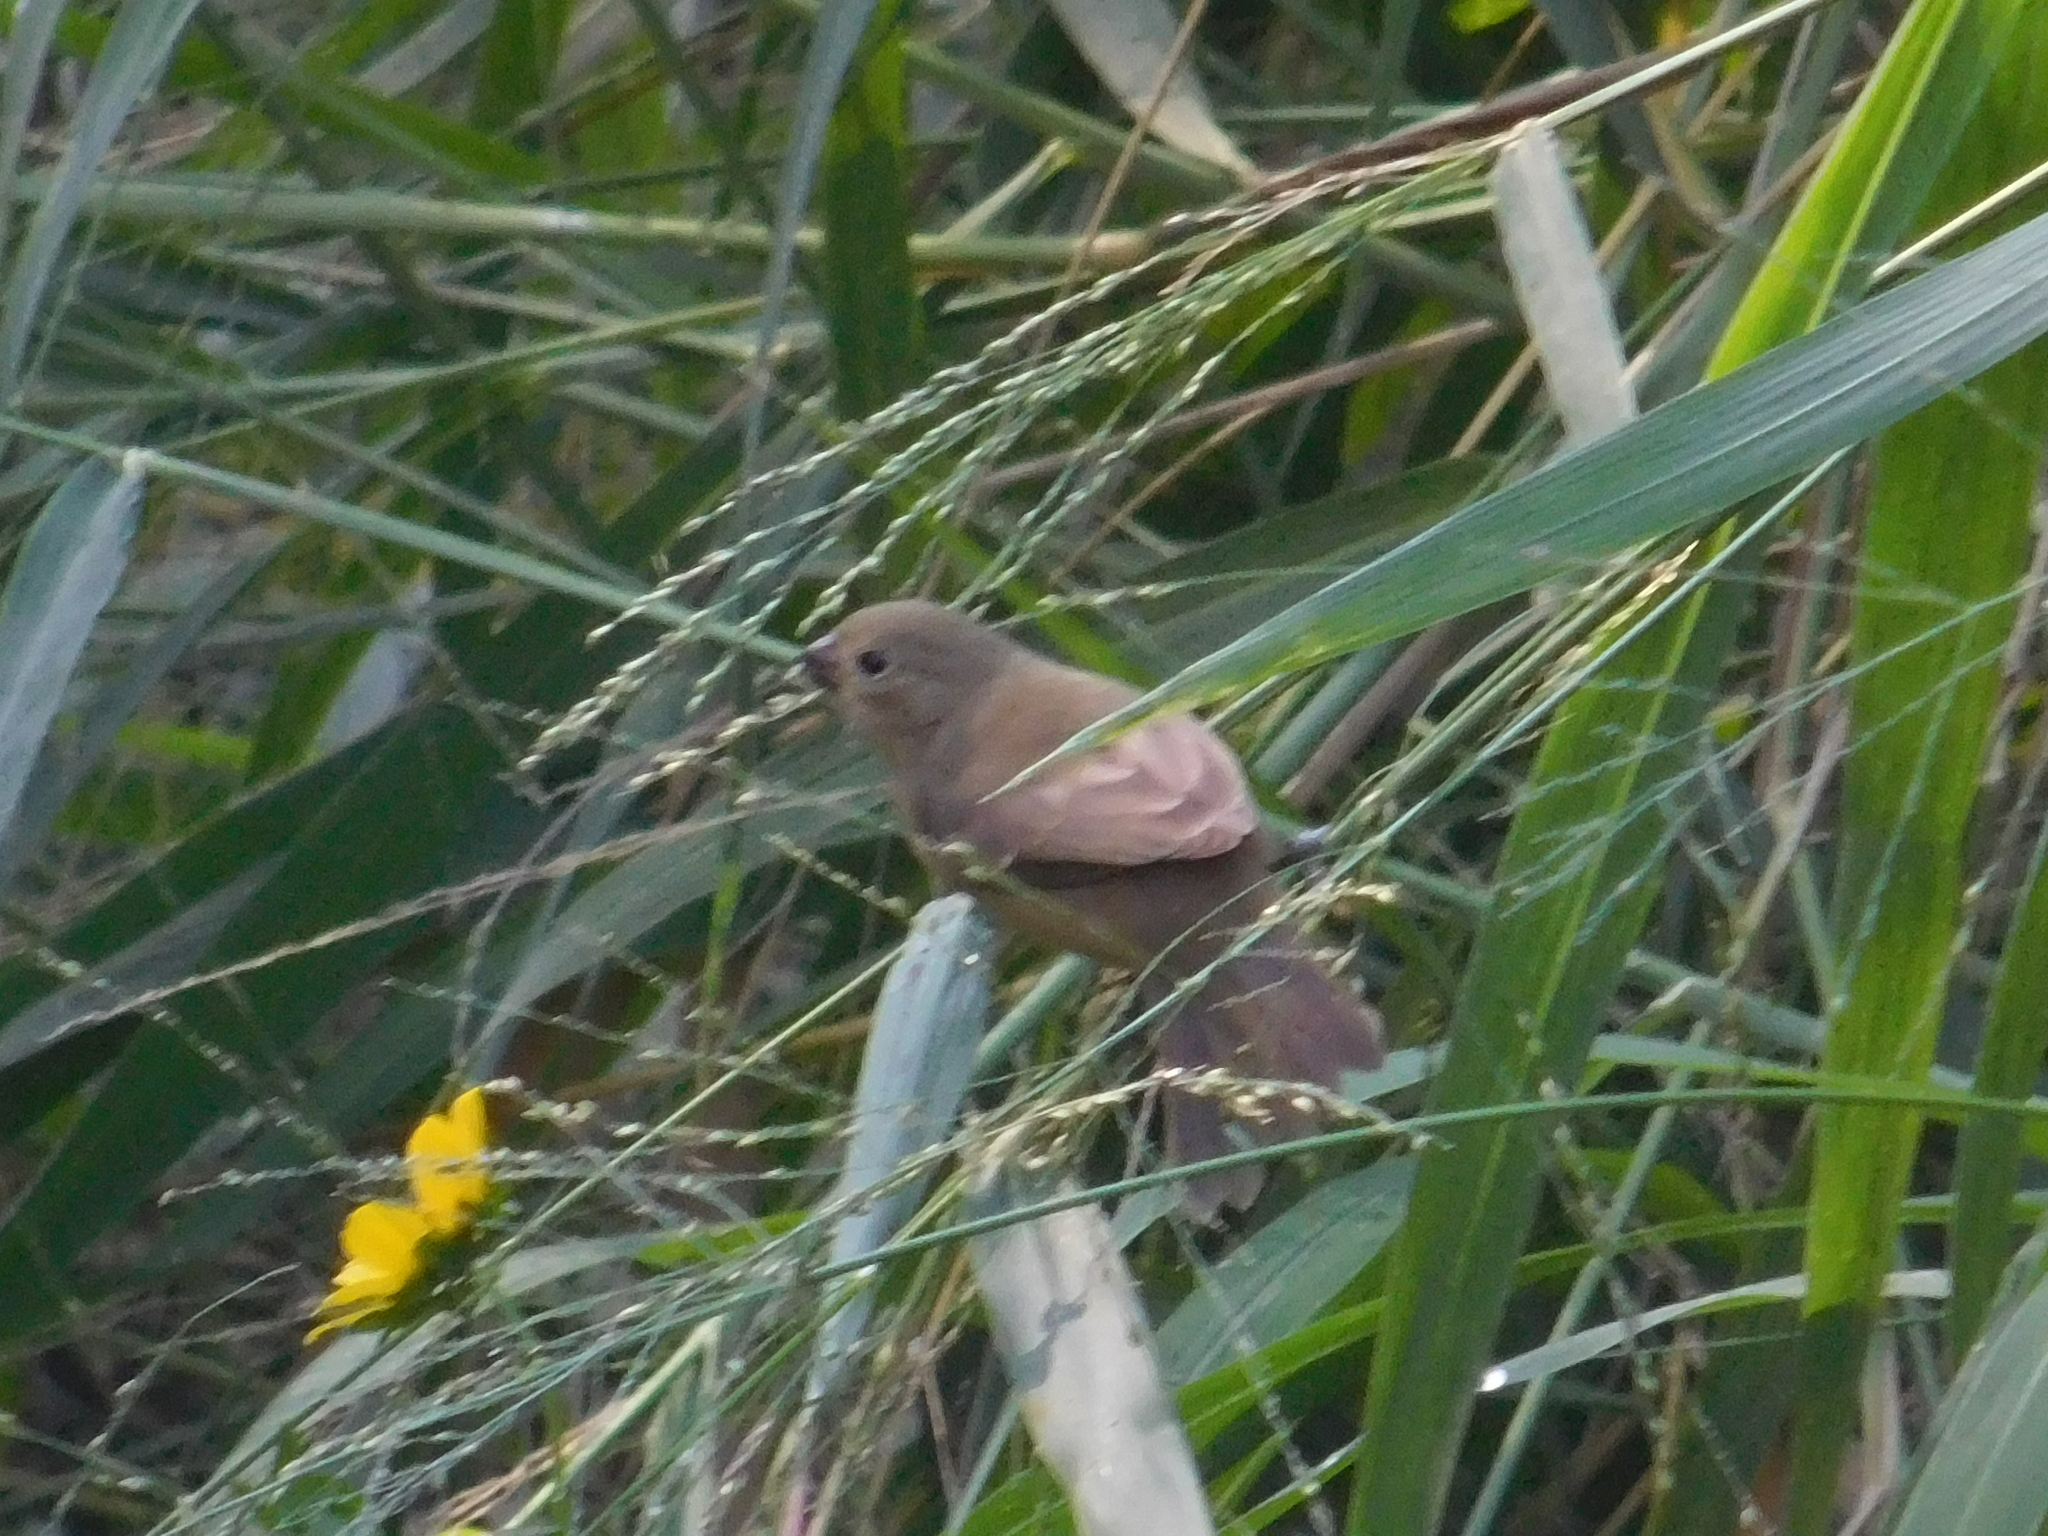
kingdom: Animalia
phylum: Chordata
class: Aves
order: Passeriformes
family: Thraupidae
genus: Sporophila
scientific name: Sporophila caerulescens
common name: Double-collared seedeater
